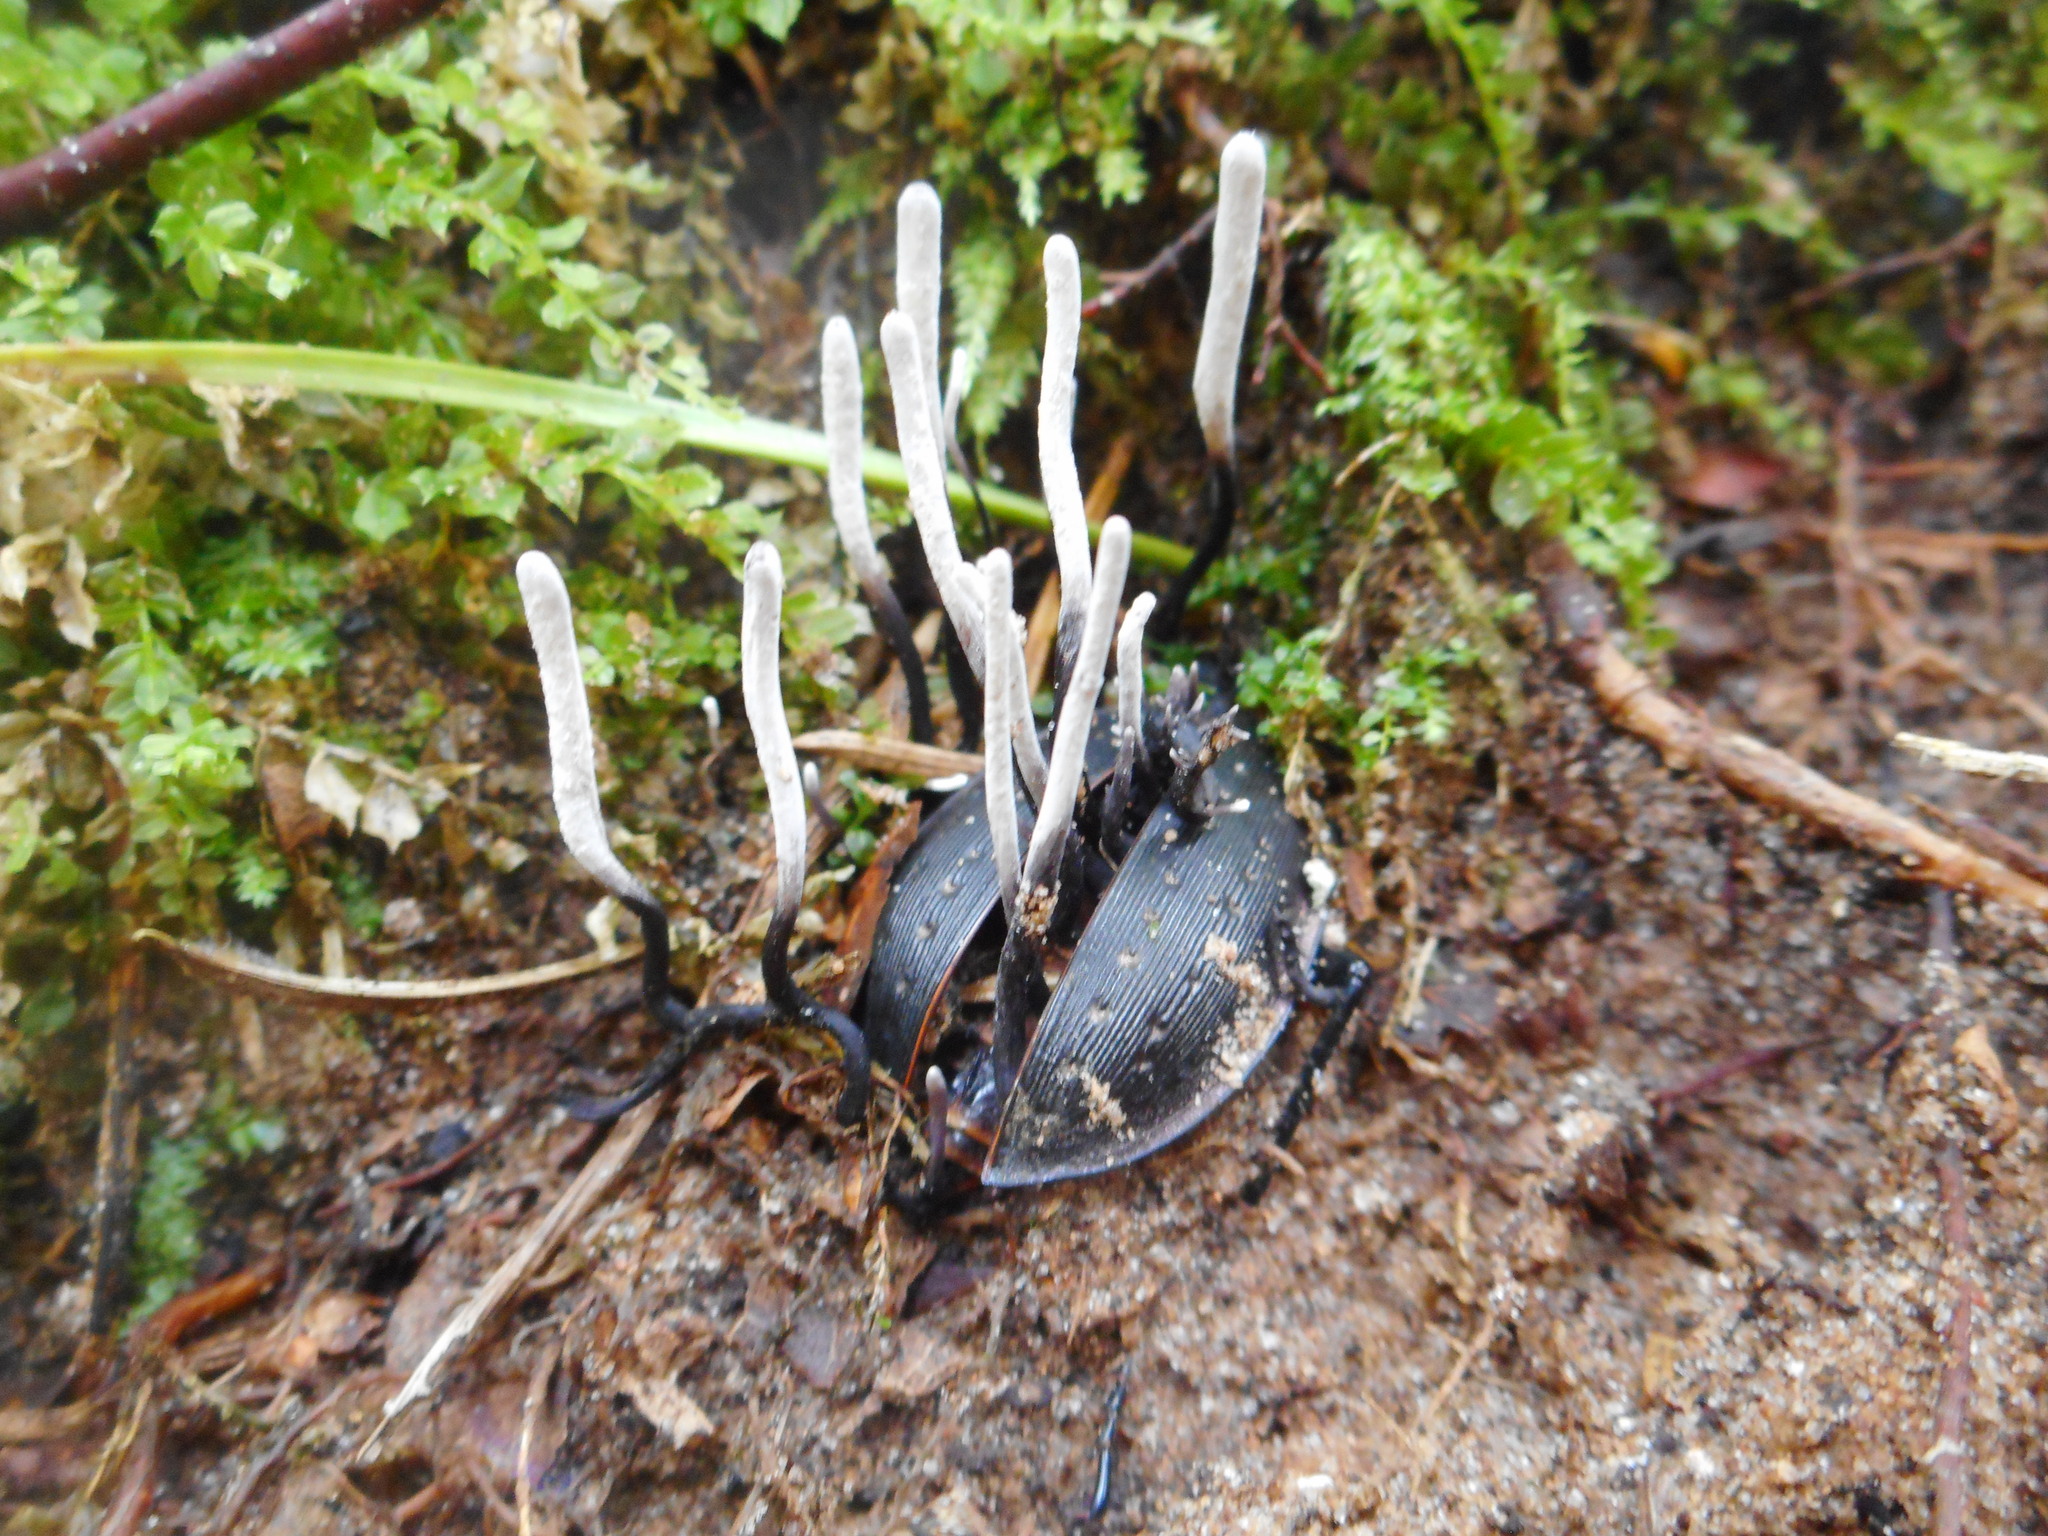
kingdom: Fungi
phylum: Ascomycota
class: Sordariomycetes
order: Hypocreales
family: Ophiocordycipitaceae
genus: Ophiocordyceps
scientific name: Ophiocordyceps entomorrhiza
